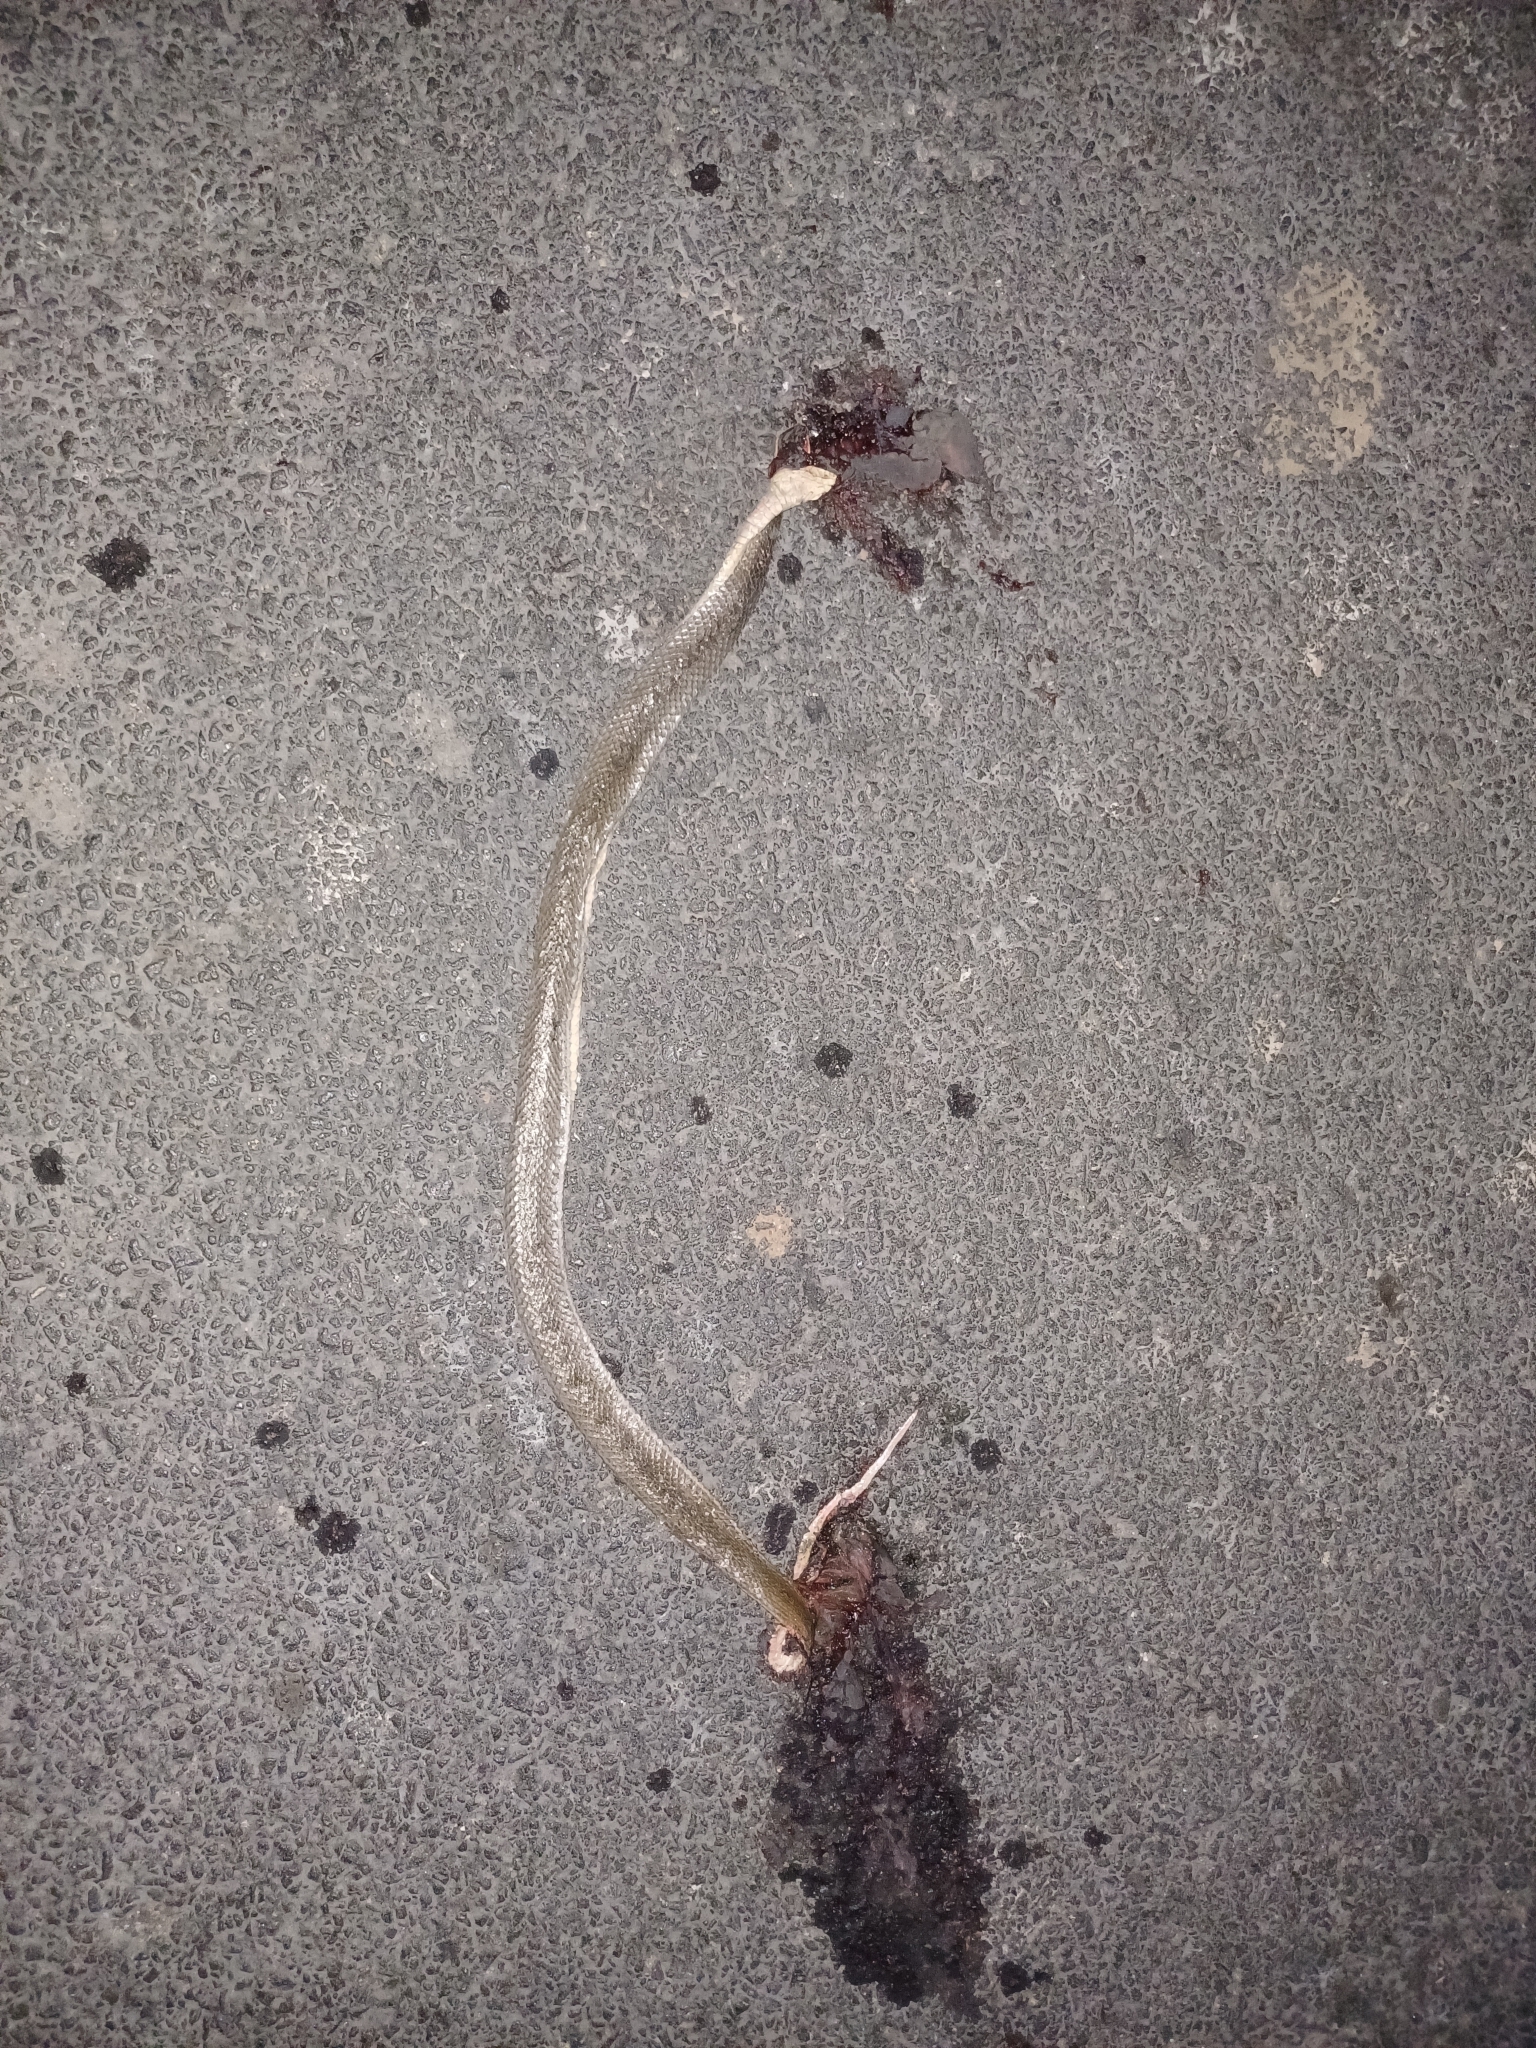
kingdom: Animalia
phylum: Chordata
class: Squamata
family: Colubridae
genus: Atretium
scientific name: Atretium schistosum
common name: Olive keelback wart snake
